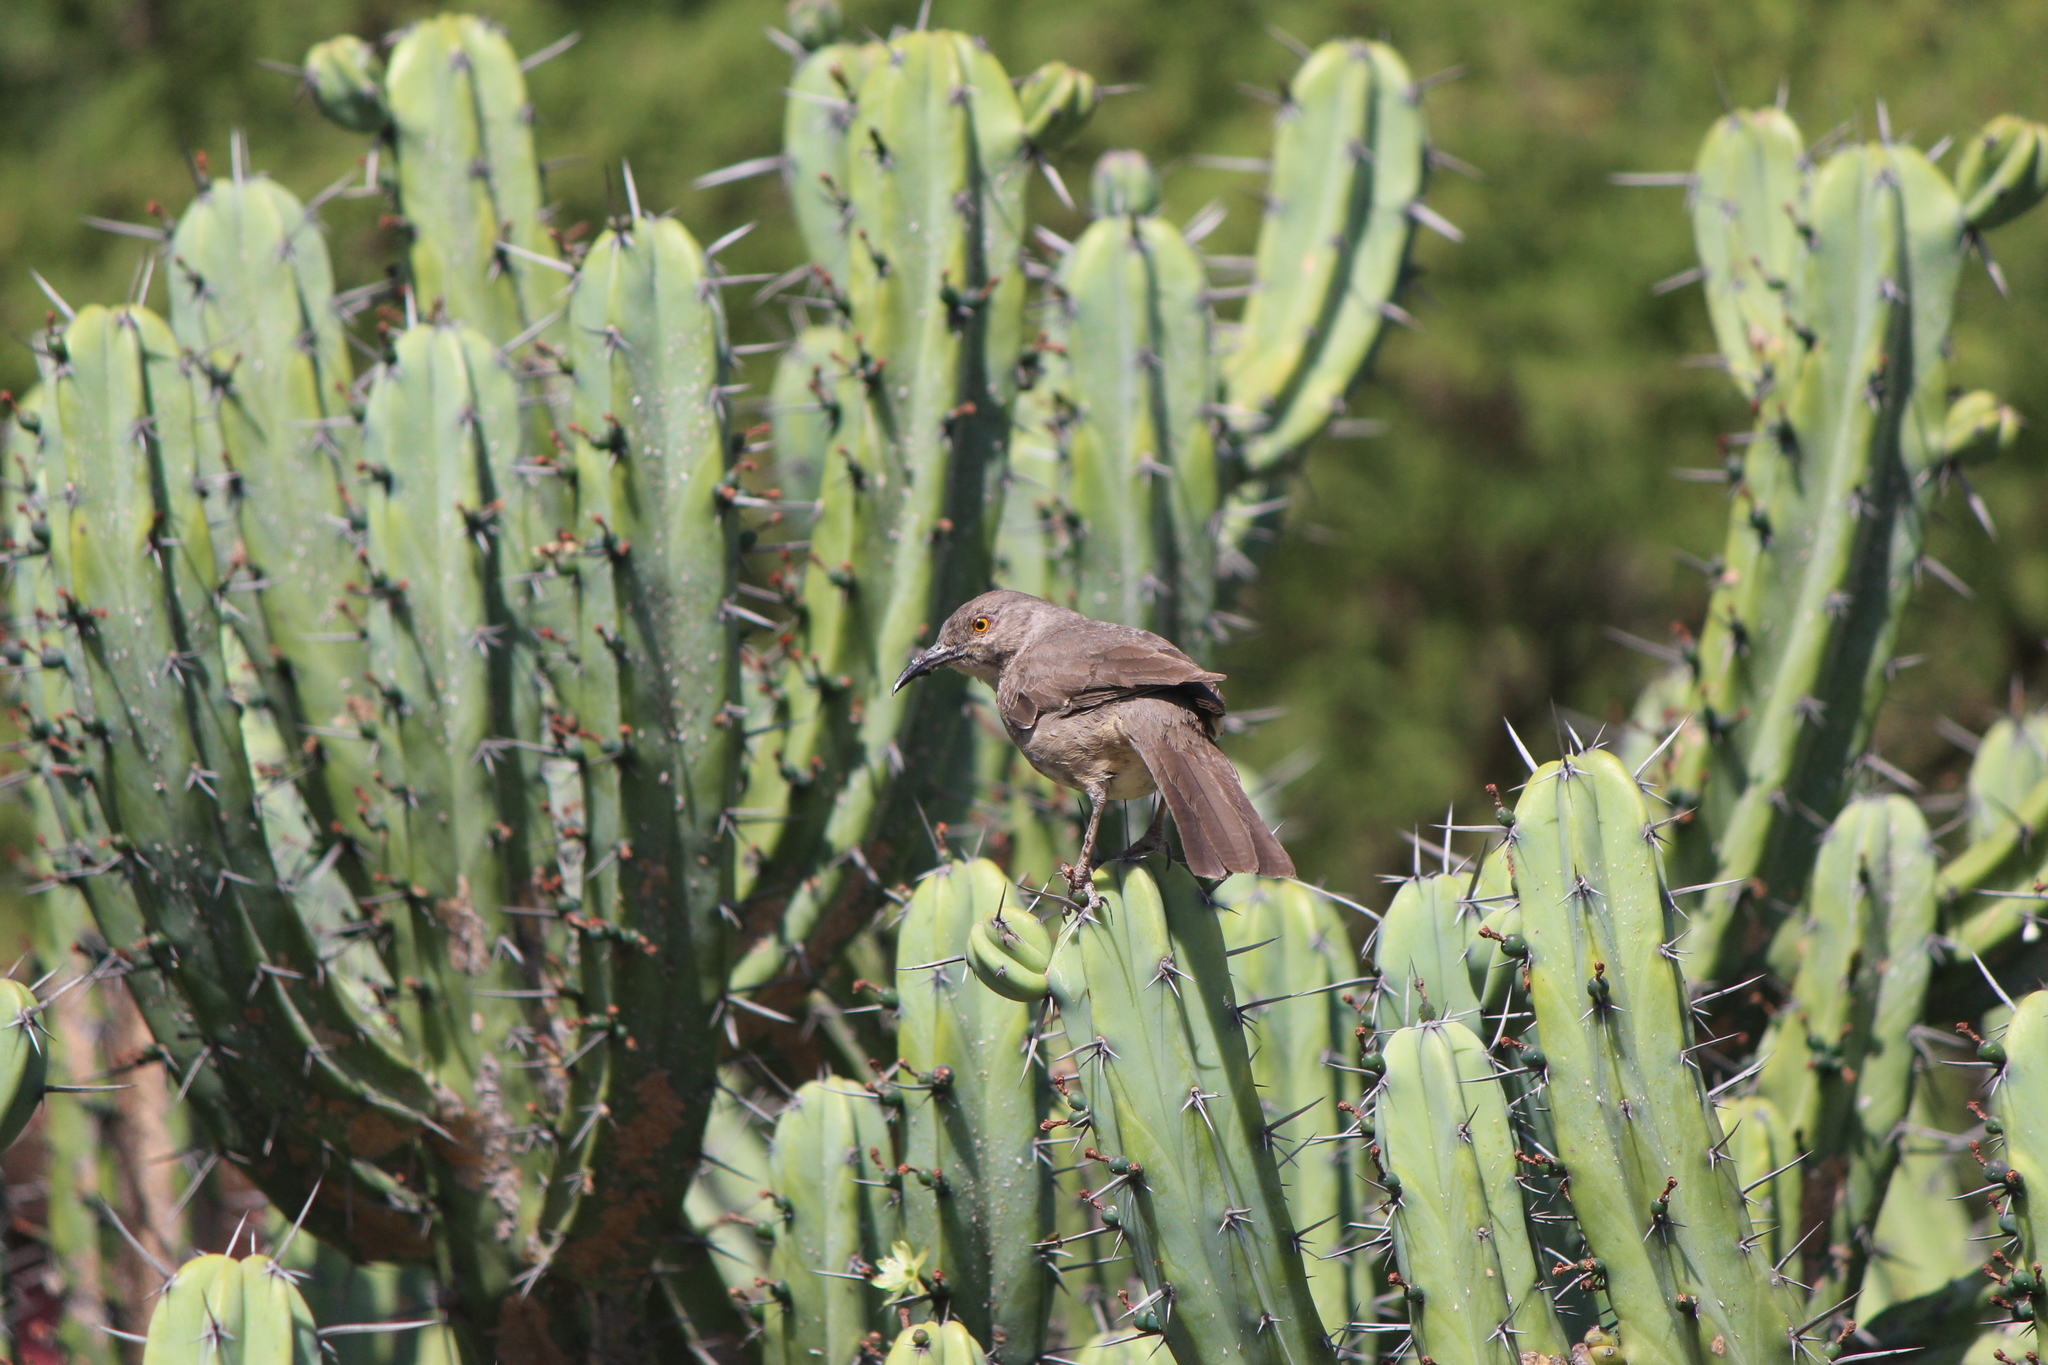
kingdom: Animalia
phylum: Chordata
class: Aves
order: Passeriformes
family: Mimidae
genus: Toxostoma
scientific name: Toxostoma curvirostre
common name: Curve-billed thrasher
